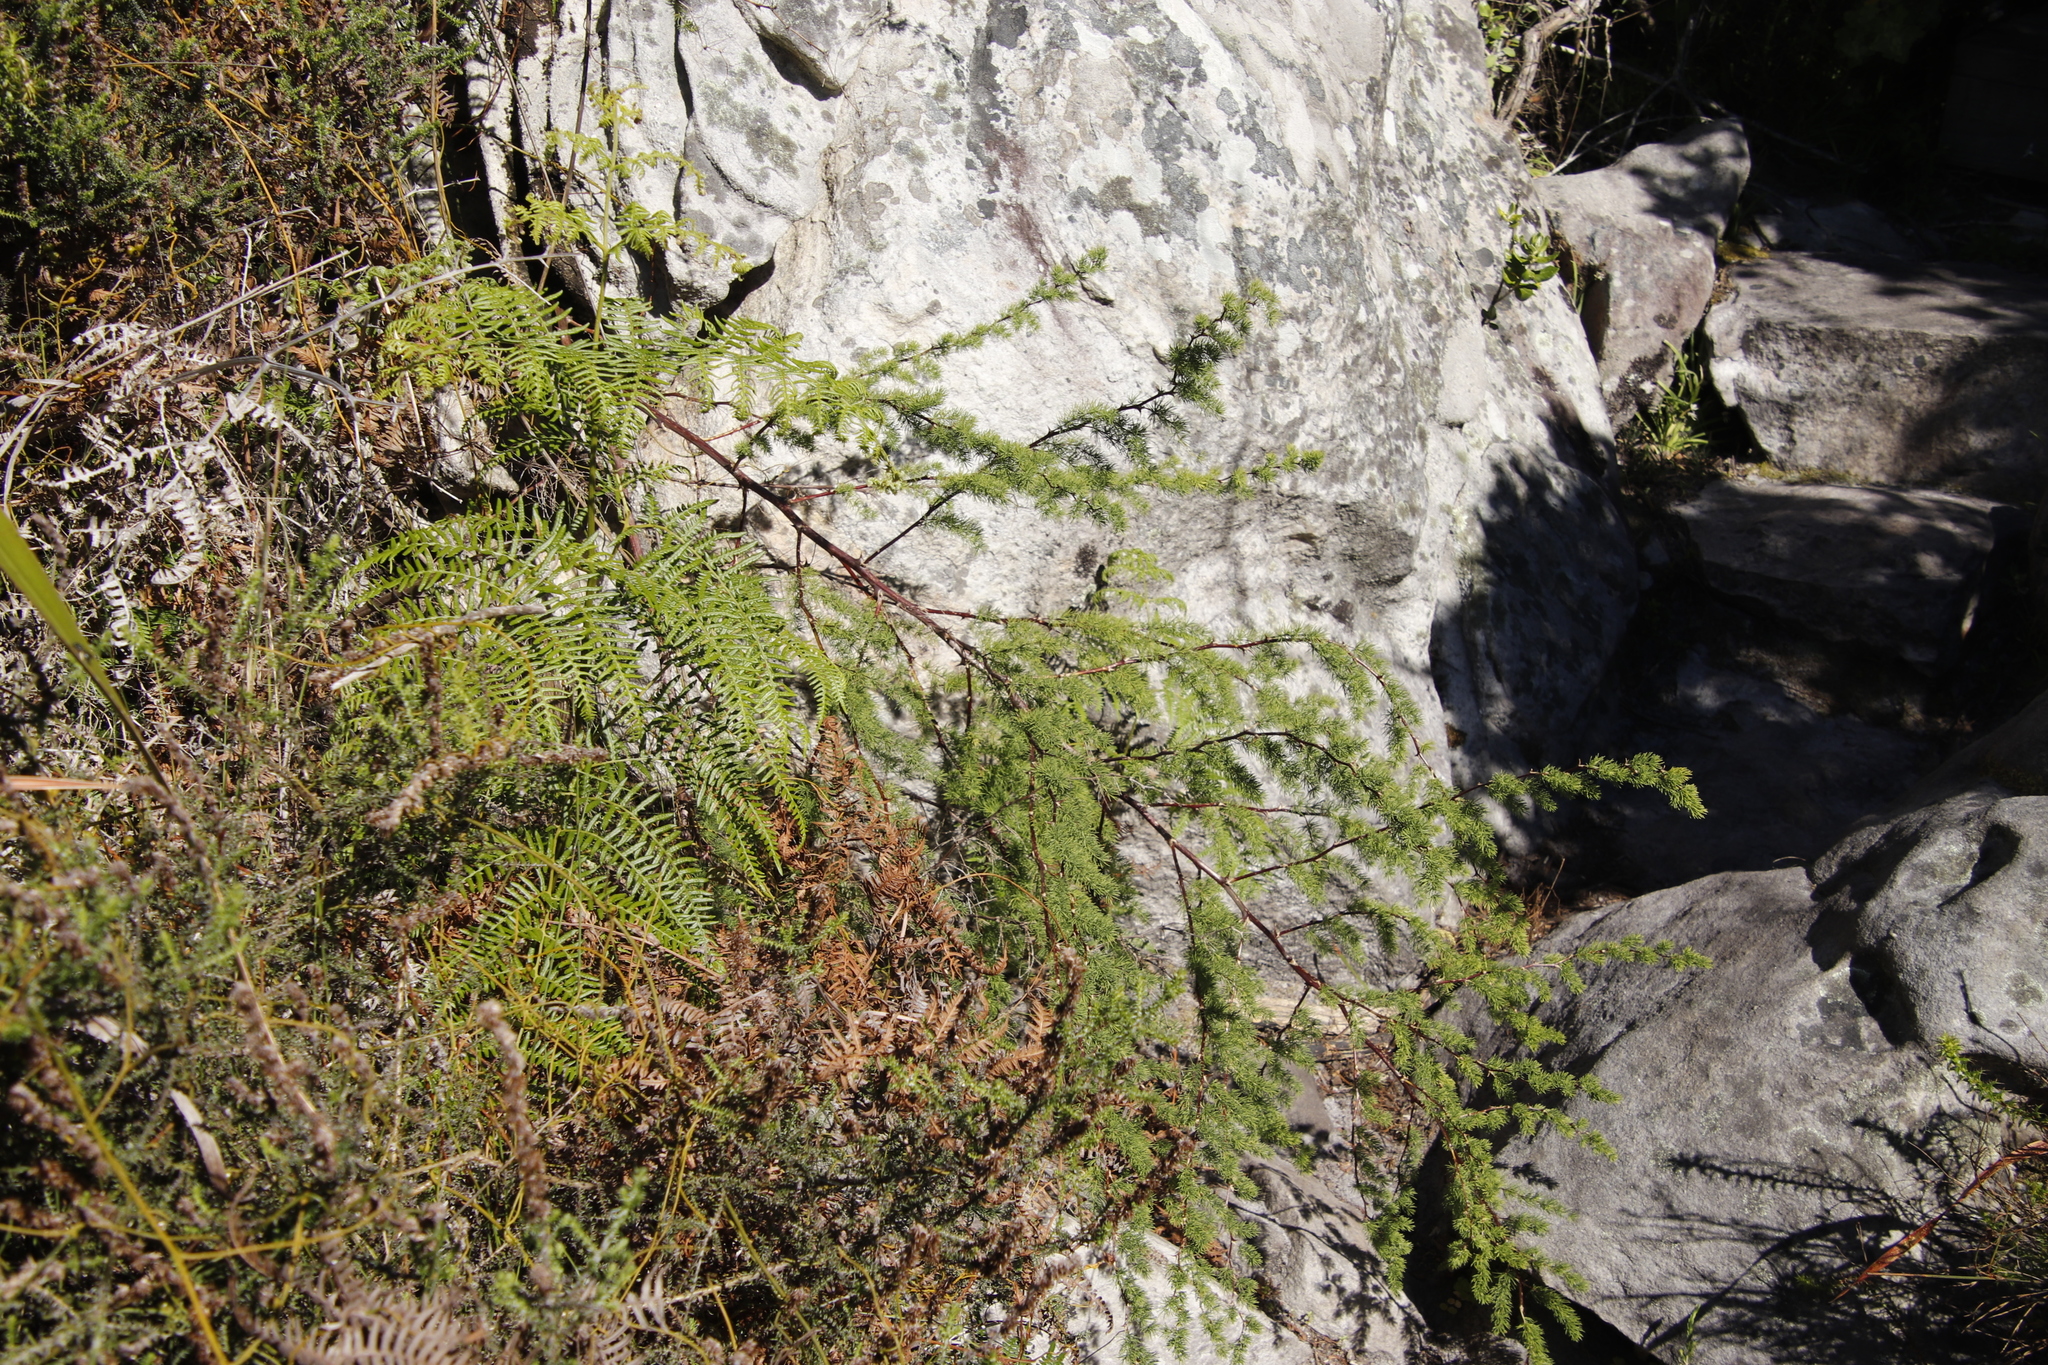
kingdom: Plantae
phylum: Tracheophyta
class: Liliopsida
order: Asparagales
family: Asparagaceae
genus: Asparagus
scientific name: Asparagus rubicundus
